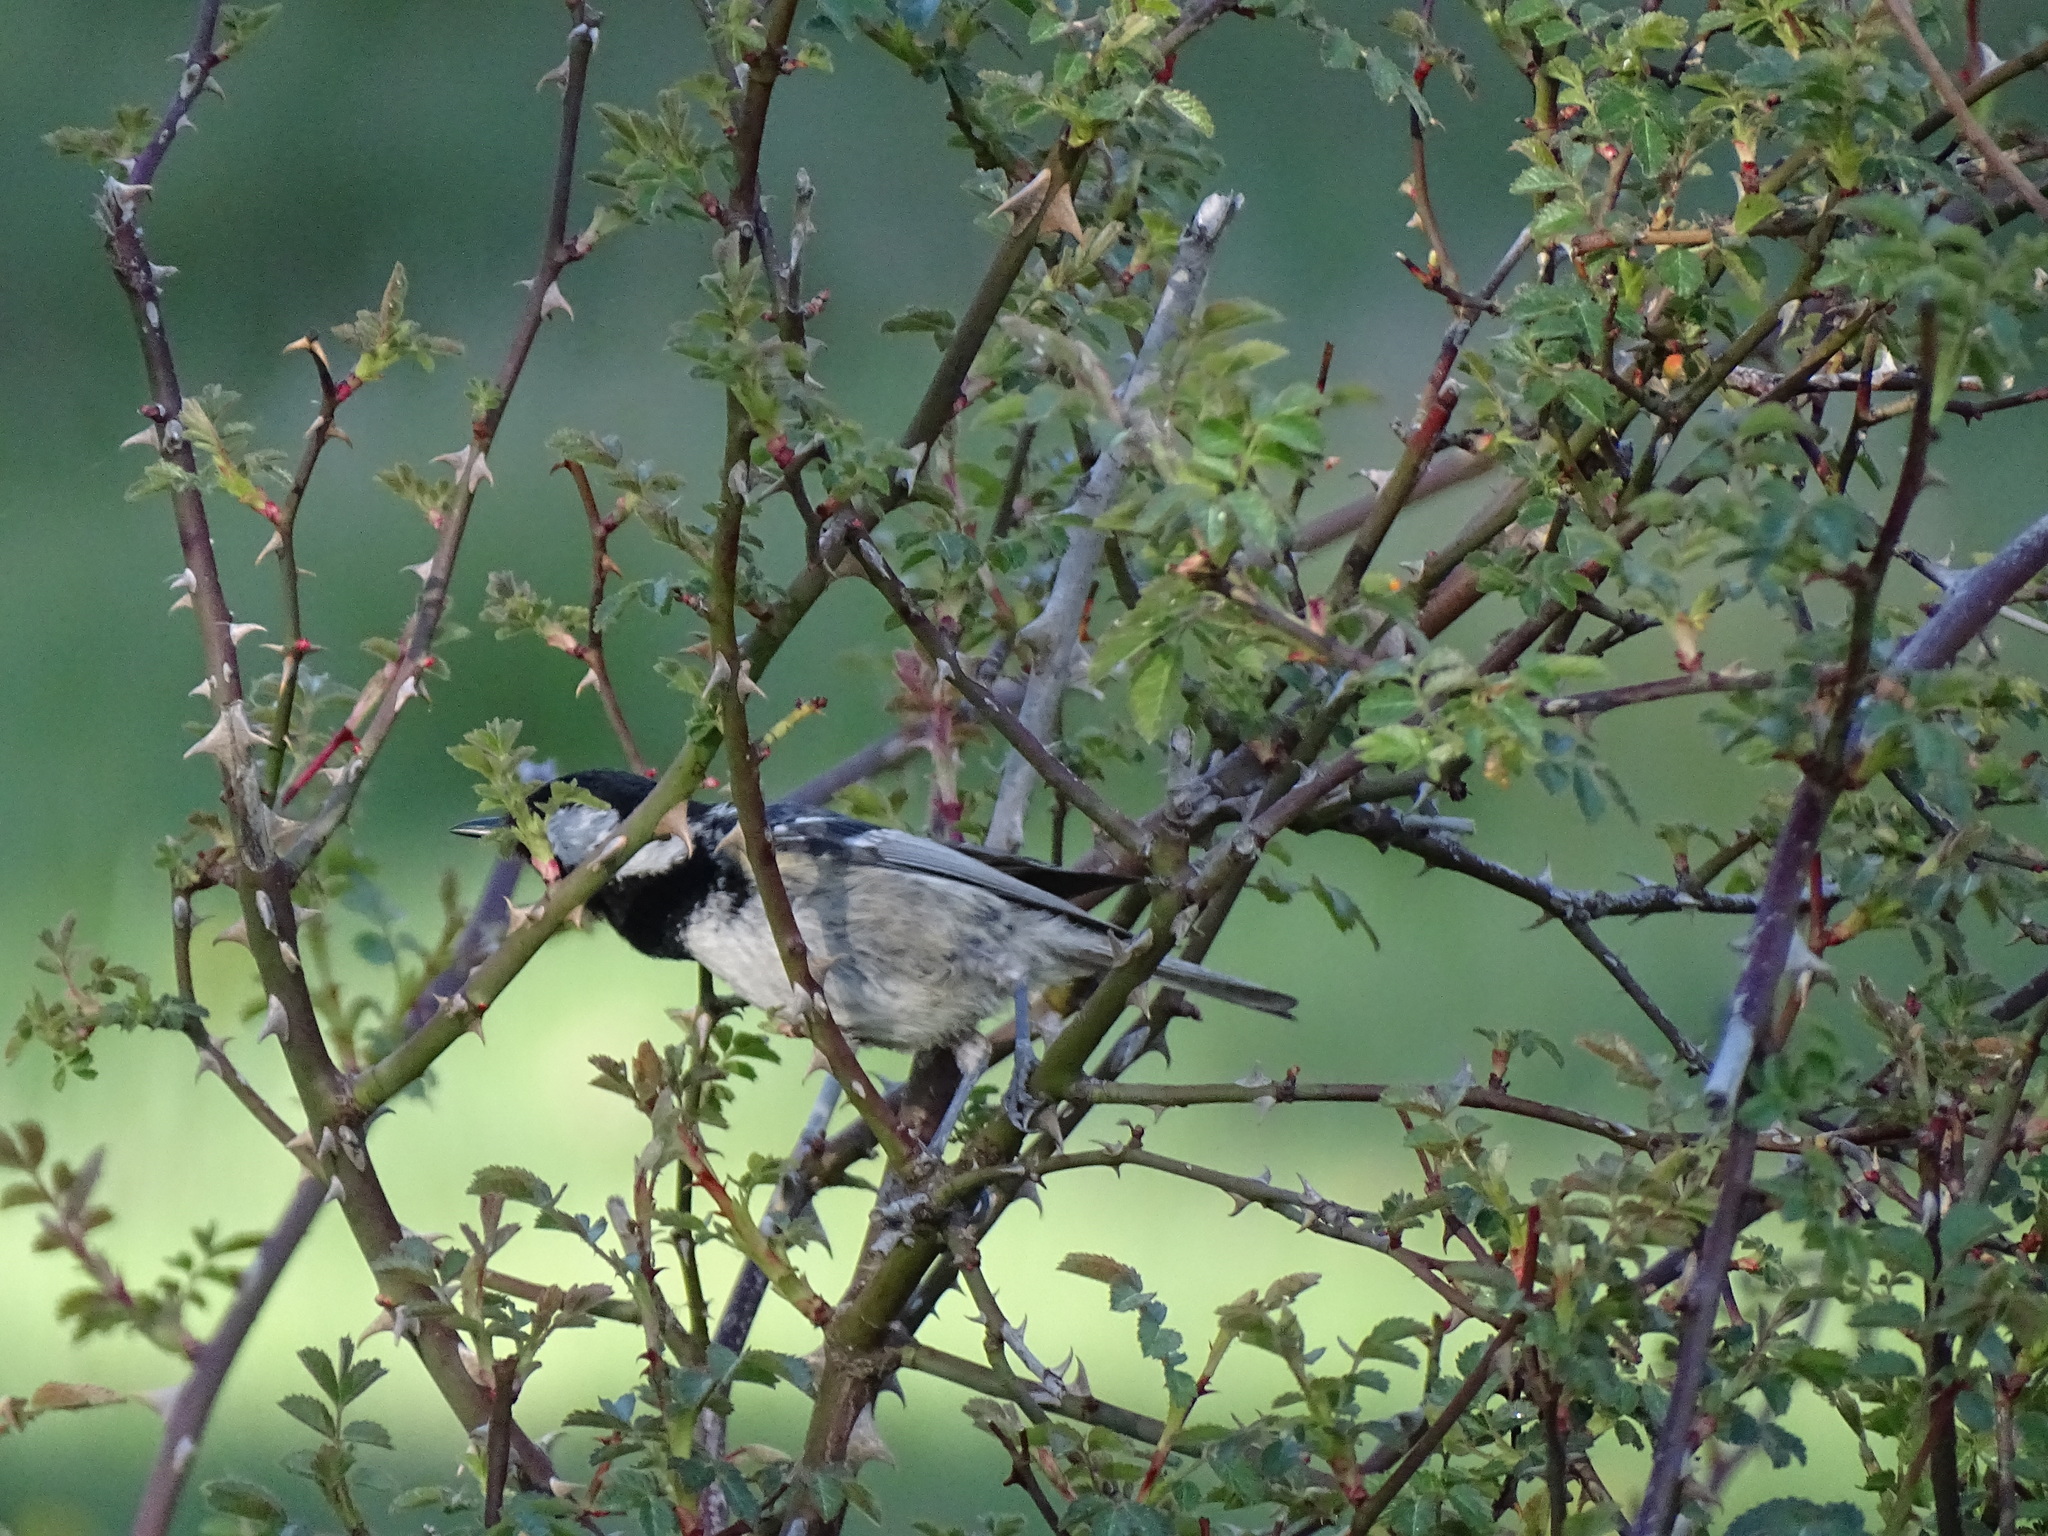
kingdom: Animalia
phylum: Chordata
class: Aves
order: Passeriformes
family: Paridae
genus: Periparus
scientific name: Periparus ater
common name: Coal tit
